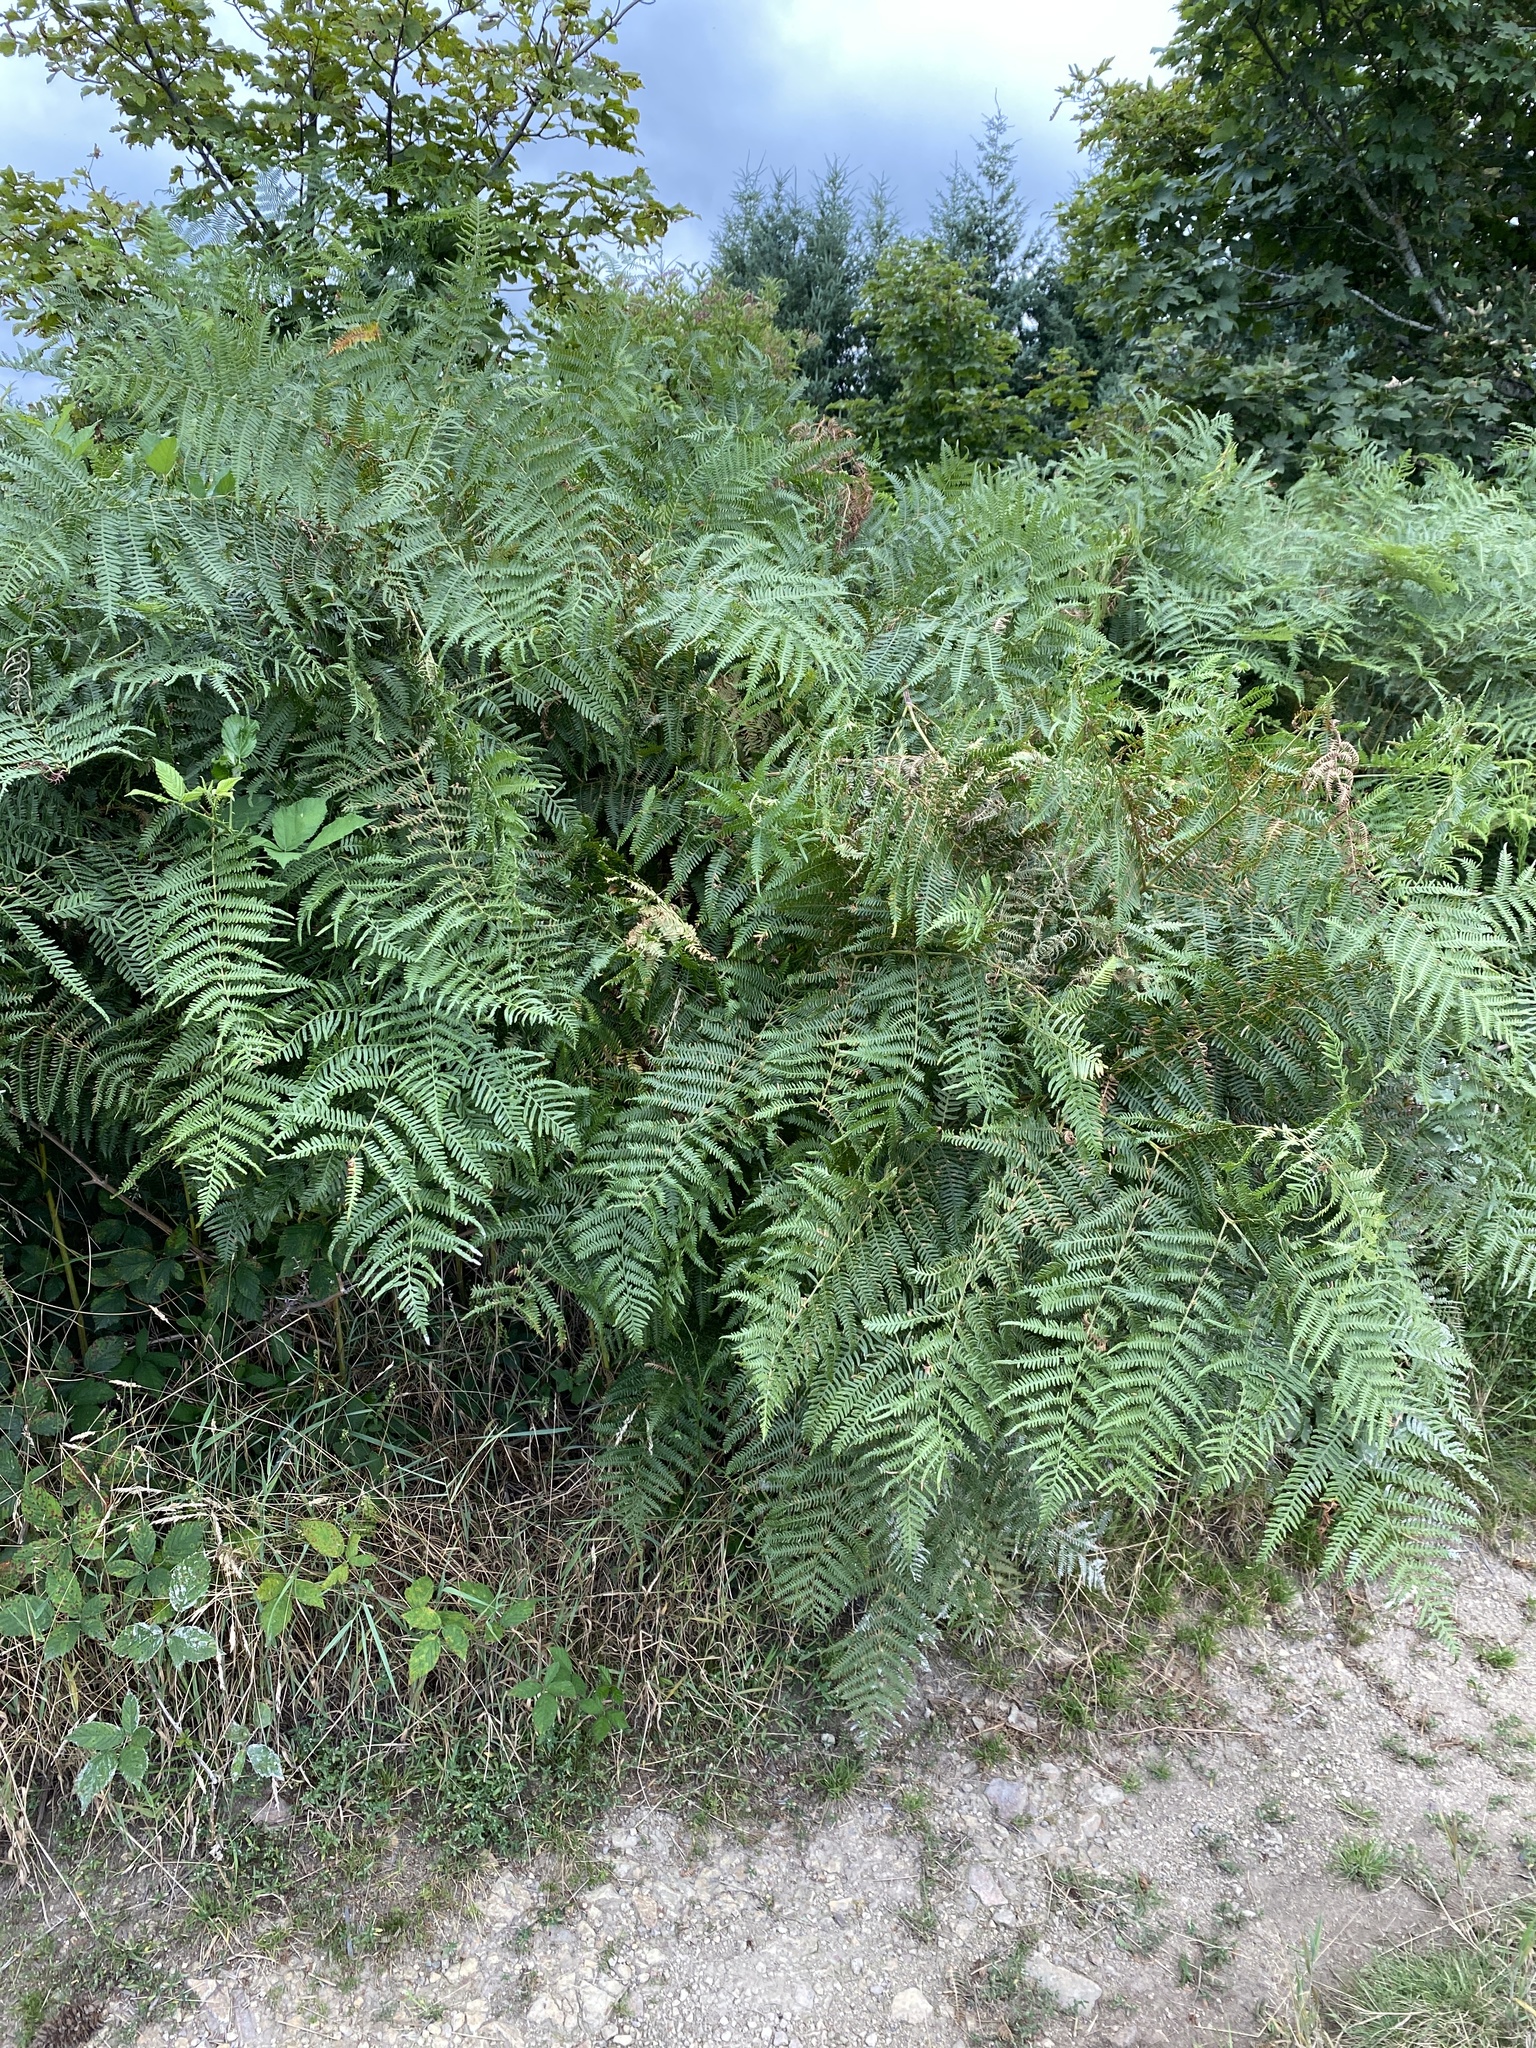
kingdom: Plantae
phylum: Tracheophyta
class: Polypodiopsida
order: Polypodiales
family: Dennstaedtiaceae
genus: Pteridium
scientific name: Pteridium aquilinum
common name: Bracken
